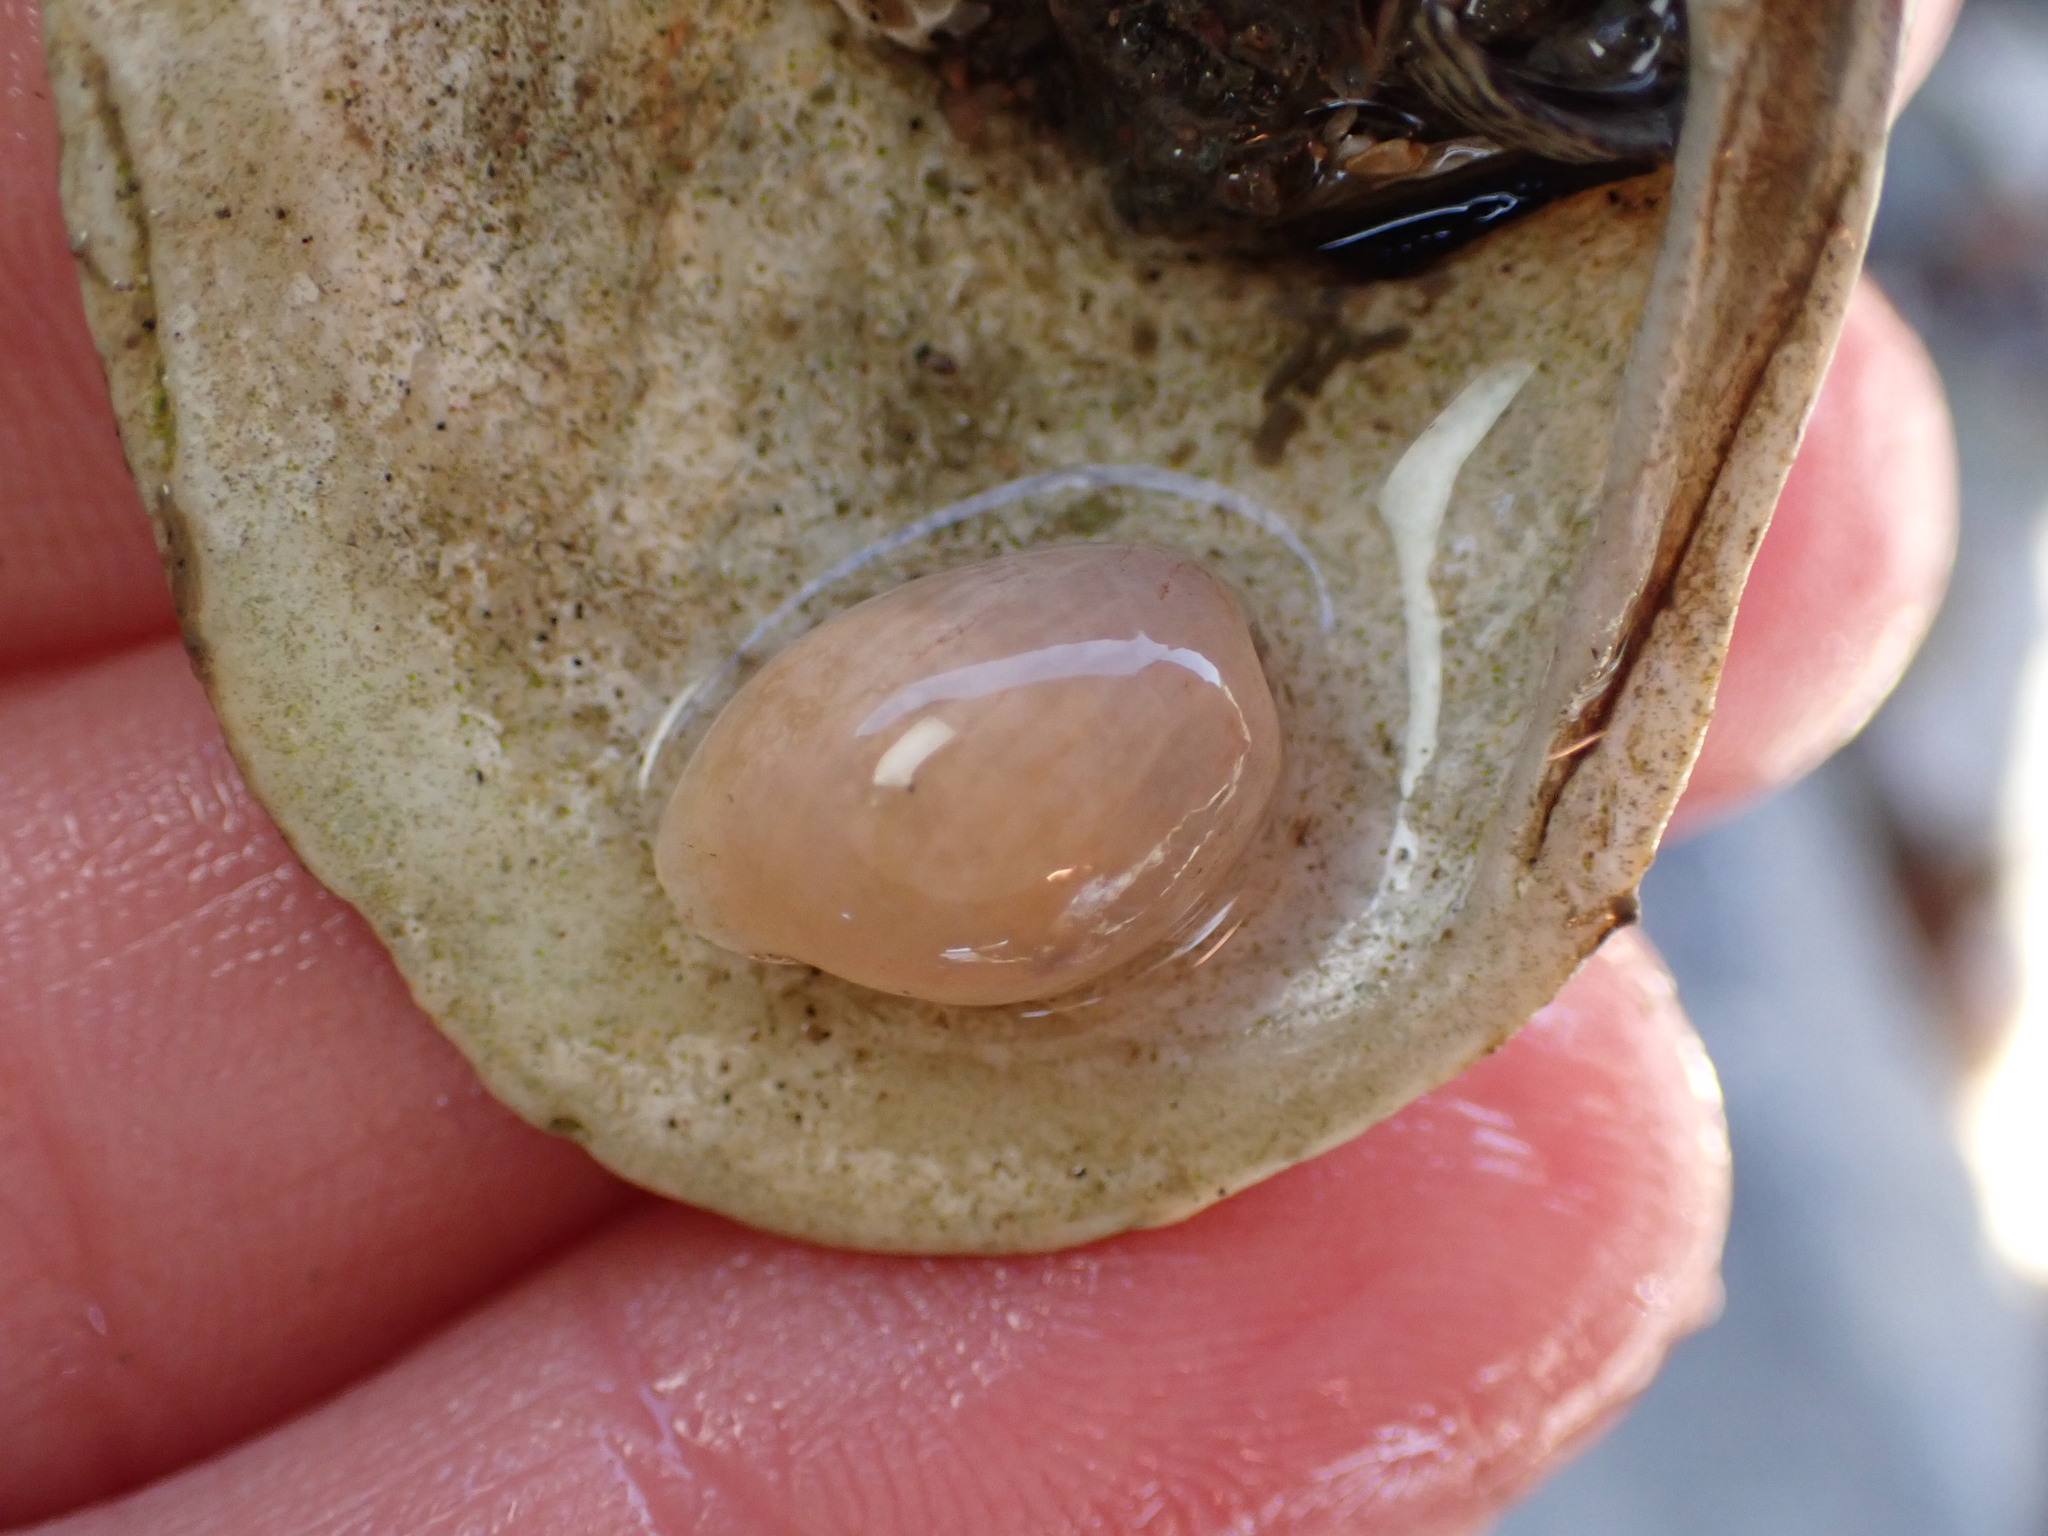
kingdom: Animalia
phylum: Mollusca
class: Gastropoda
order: Cephalaspidea
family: Haminoeidae
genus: Haloa
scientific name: Haloa japonica
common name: Japanese bubble snail
